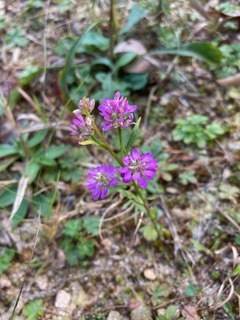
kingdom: Plantae
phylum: Tracheophyta
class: Magnoliopsida
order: Fabales
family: Polygalaceae
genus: Polygala
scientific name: Polygala curtissii
